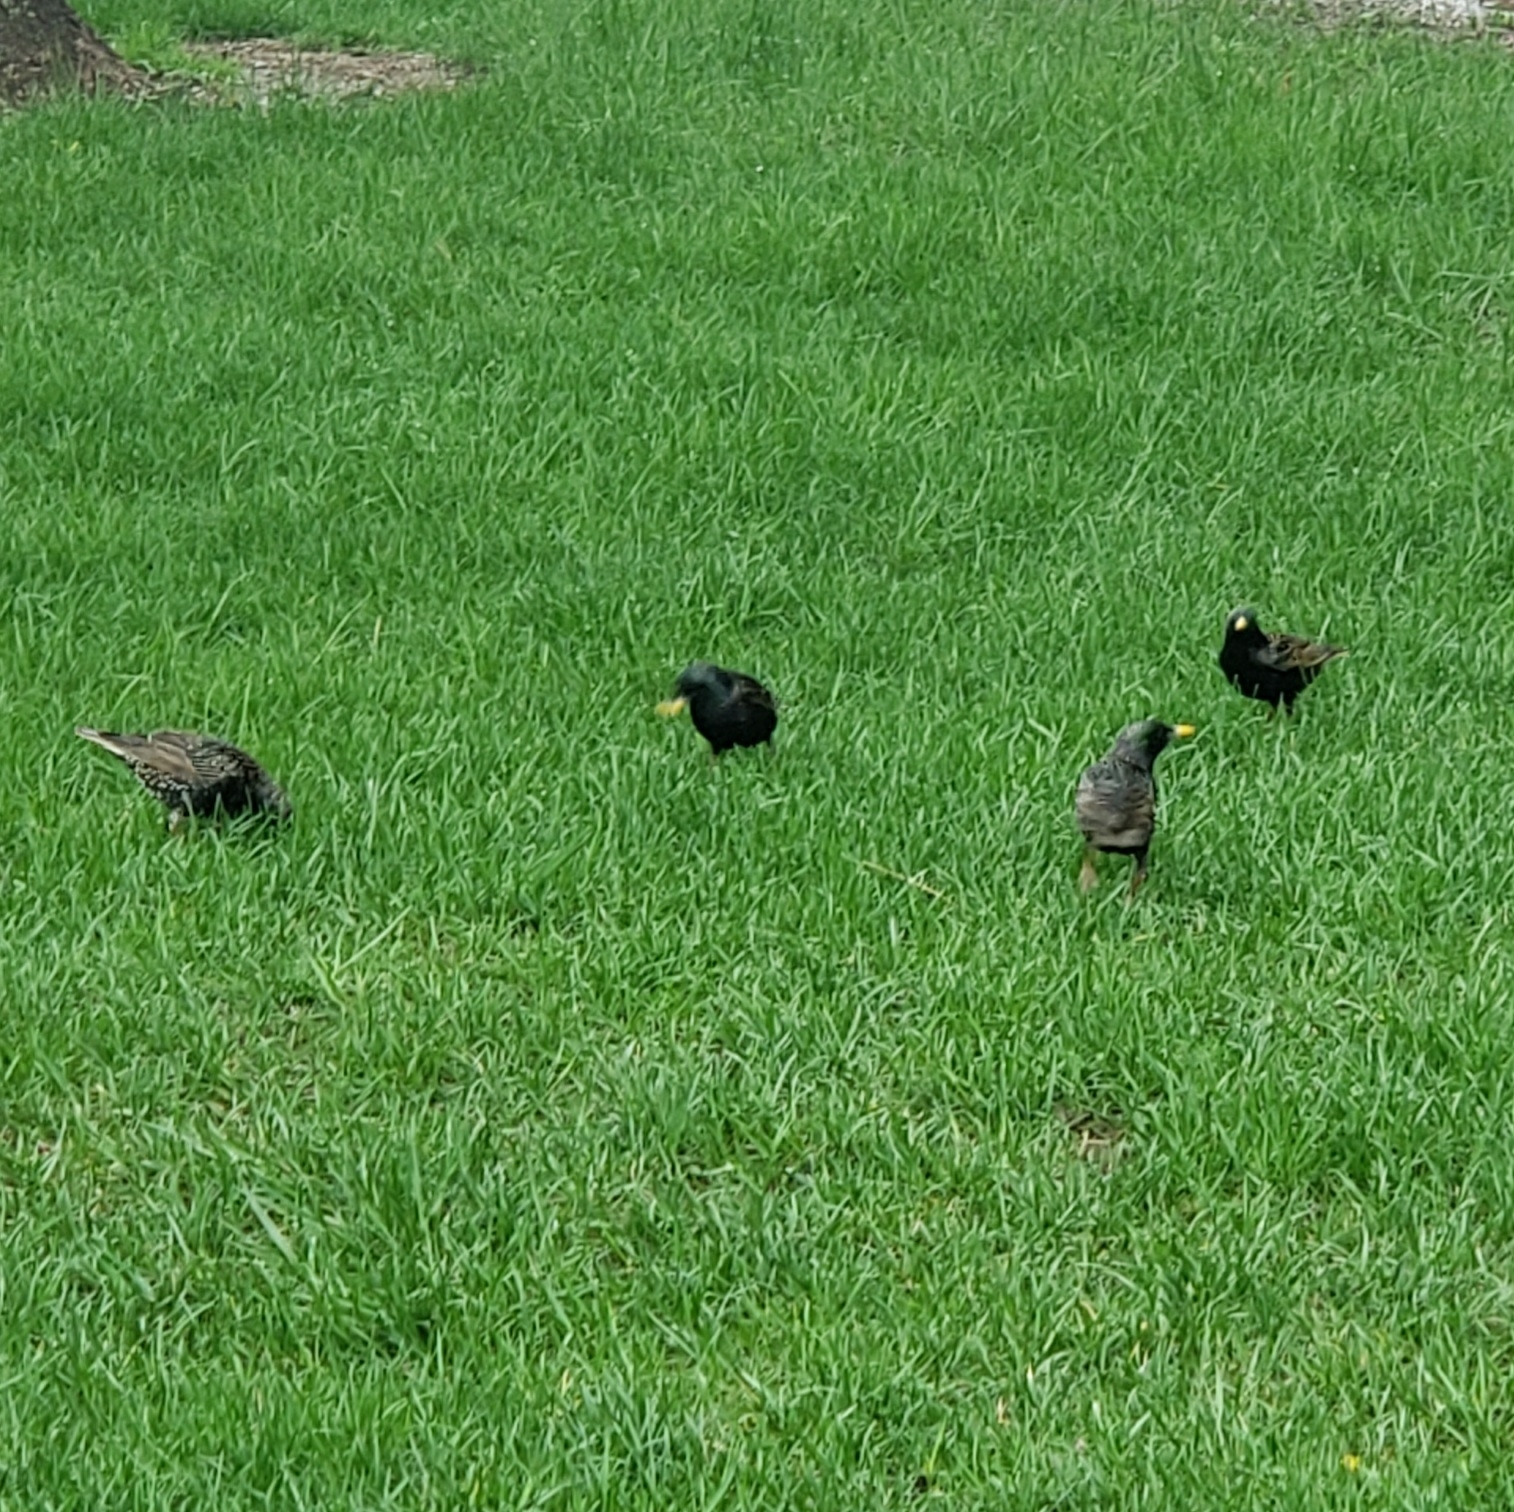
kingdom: Animalia
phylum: Chordata
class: Aves
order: Passeriformes
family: Sturnidae
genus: Sturnus
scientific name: Sturnus vulgaris
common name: Common starling
